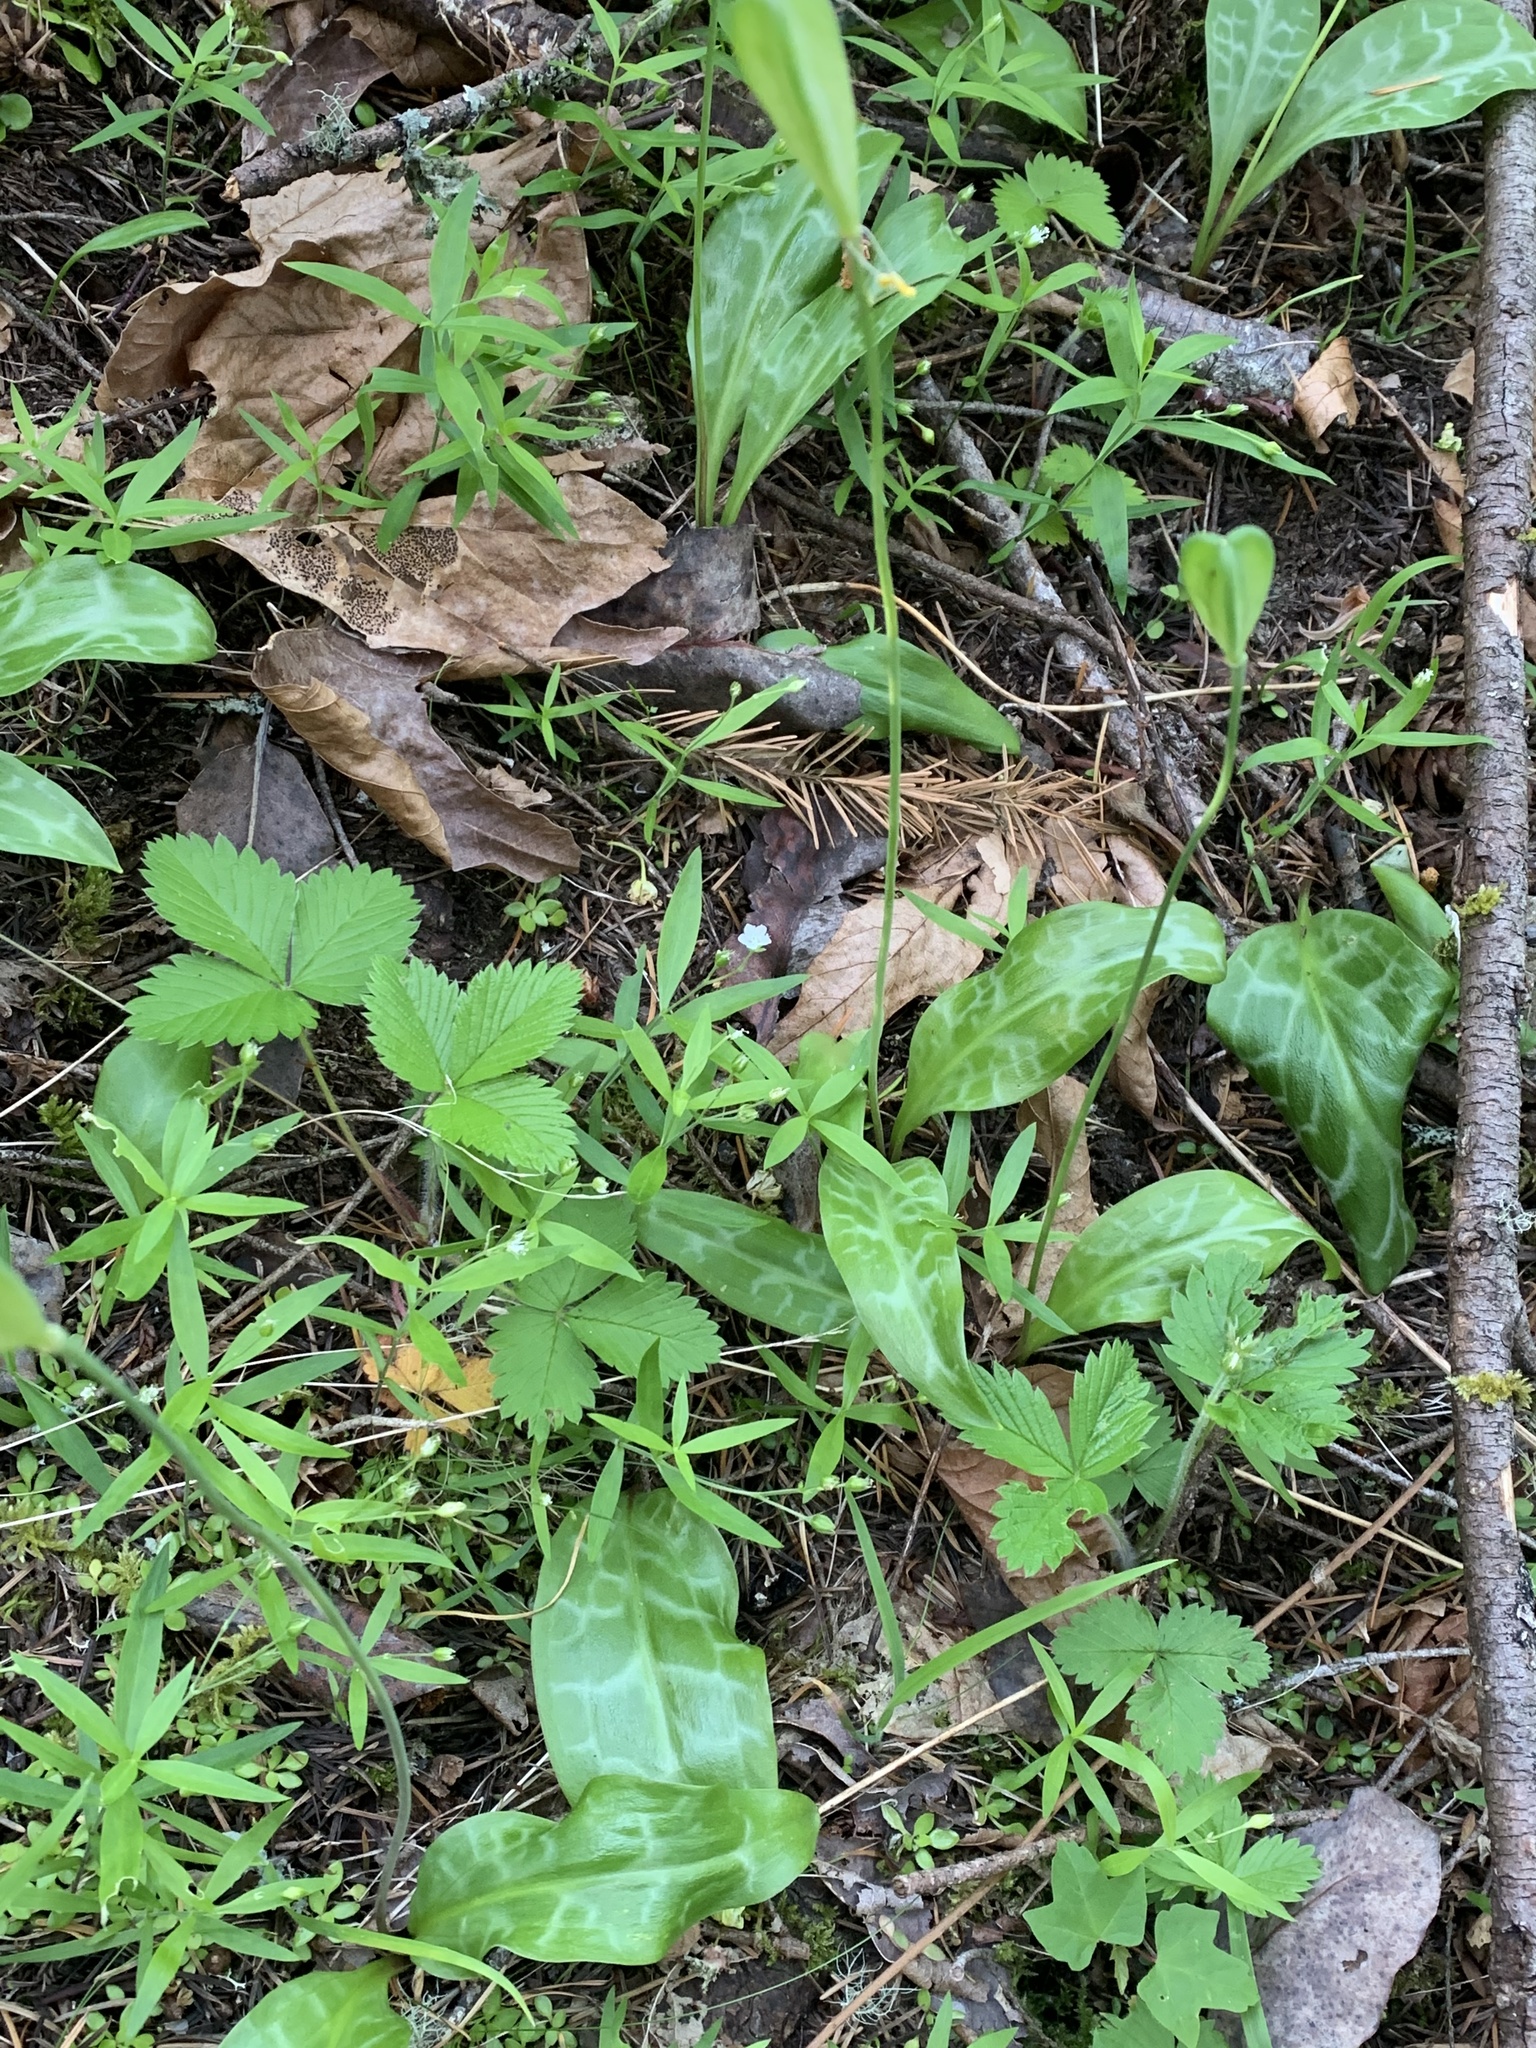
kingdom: Plantae
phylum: Tracheophyta
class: Liliopsida
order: Liliales
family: Liliaceae
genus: Erythronium
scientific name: Erythronium oregonum
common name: Giant adder's-tongue
